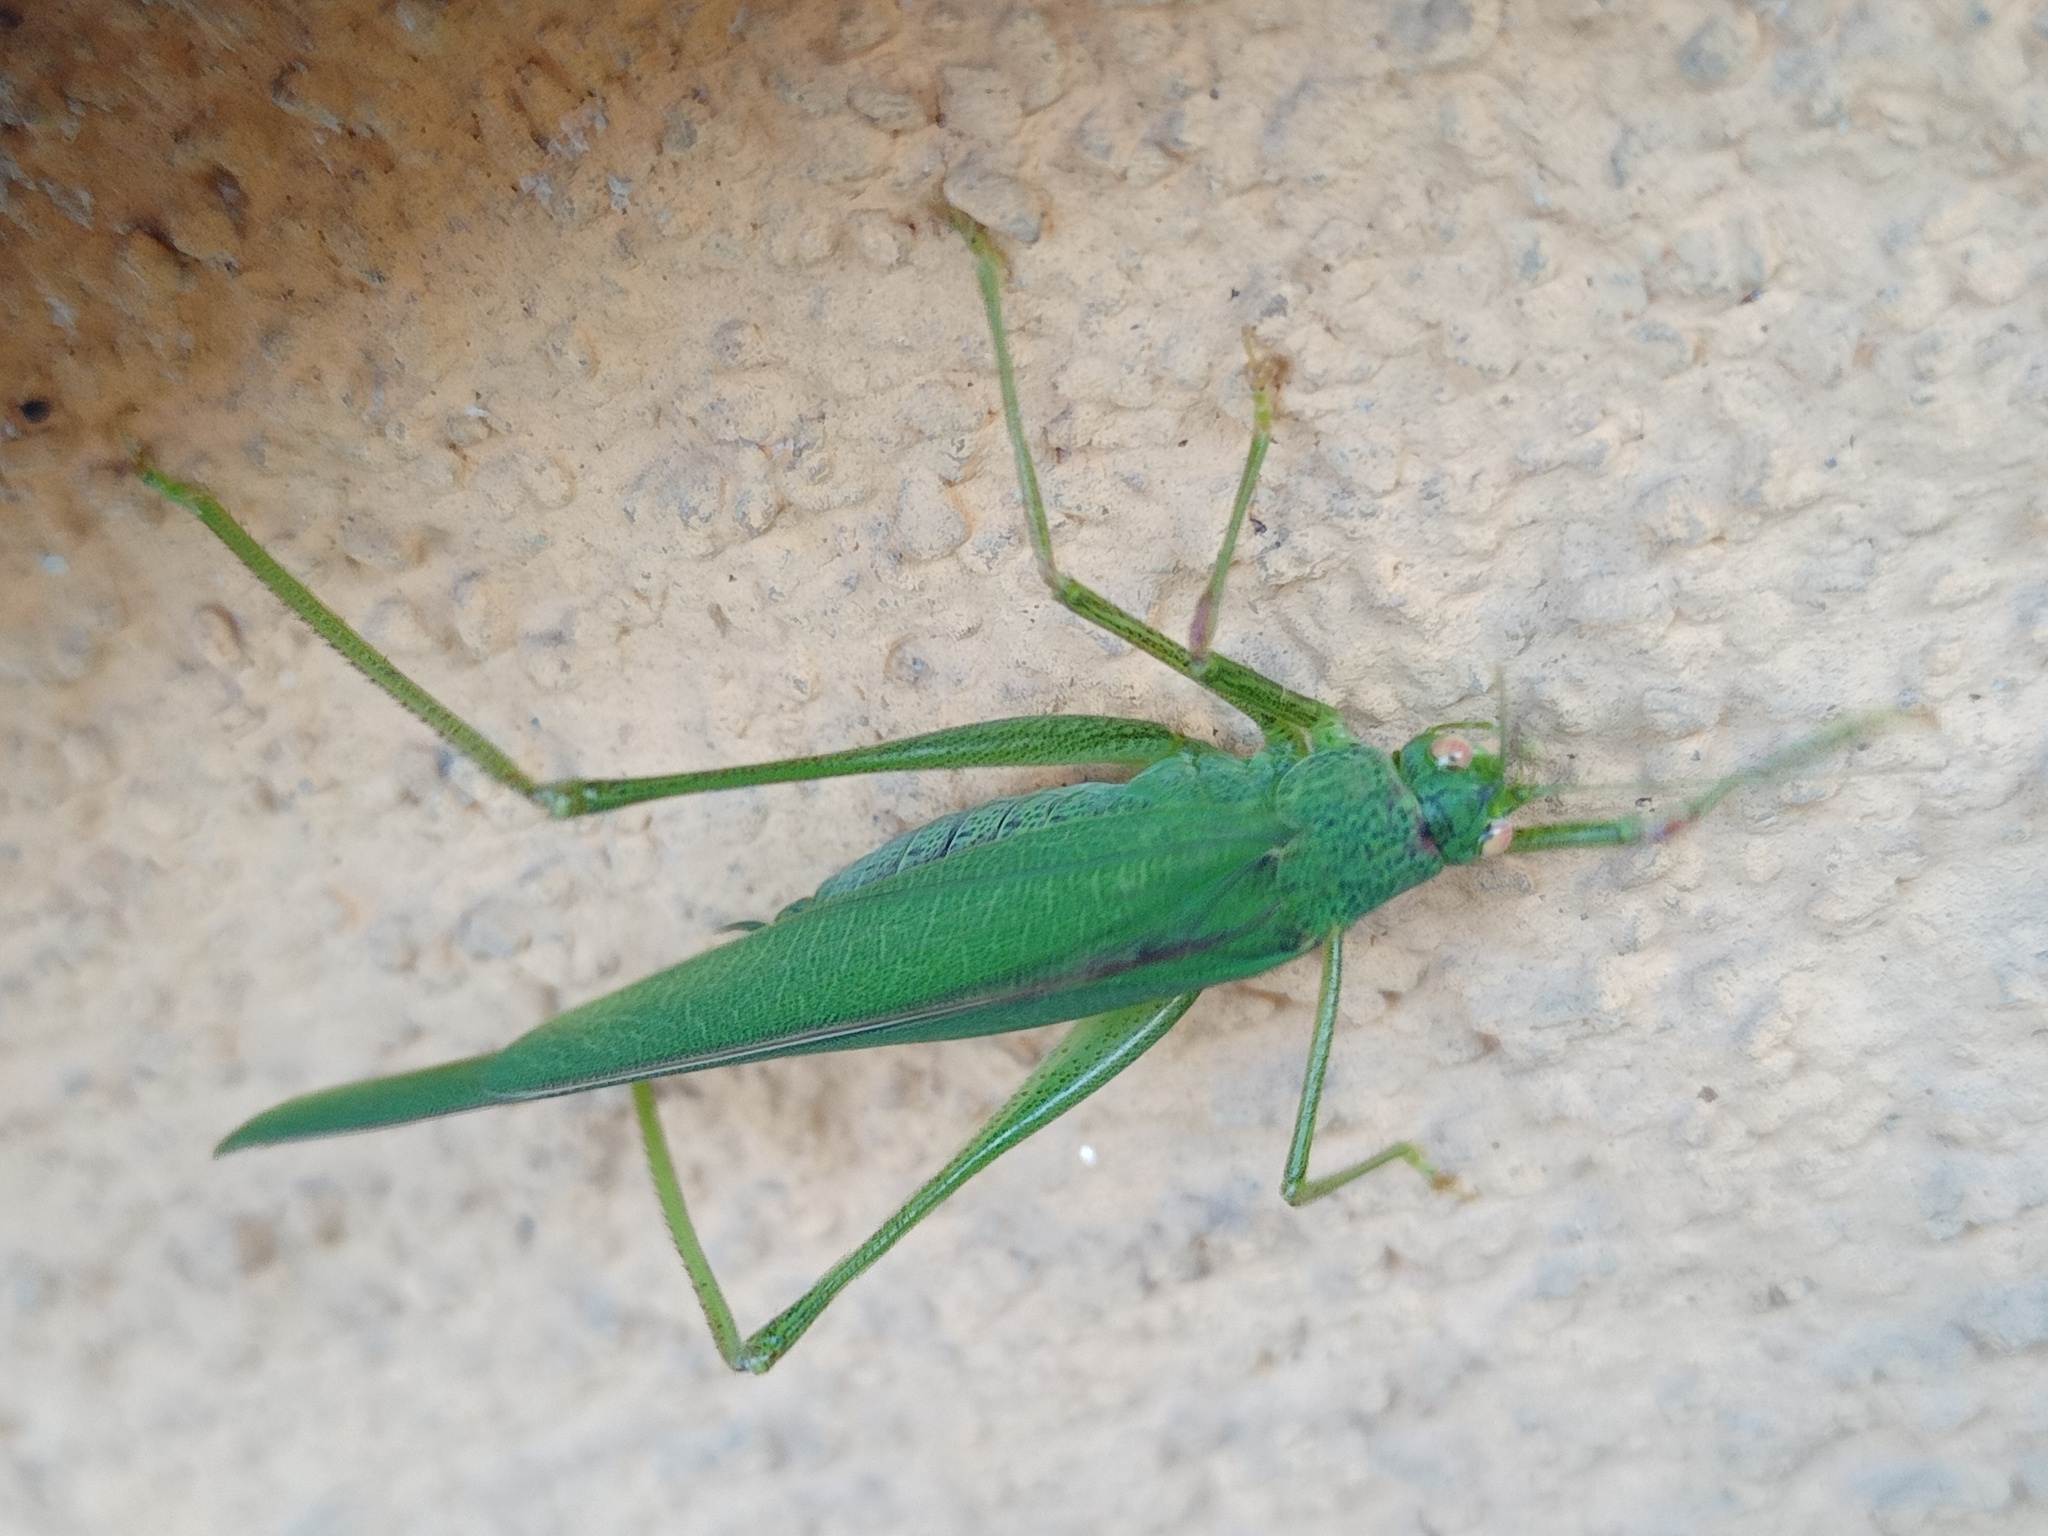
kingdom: Animalia
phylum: Arthropoda
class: Insecta
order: Orthoptera
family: Tettigoniidae
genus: Phaneroptera
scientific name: Phaneroptera nana
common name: Southern sickle bush-cricket
